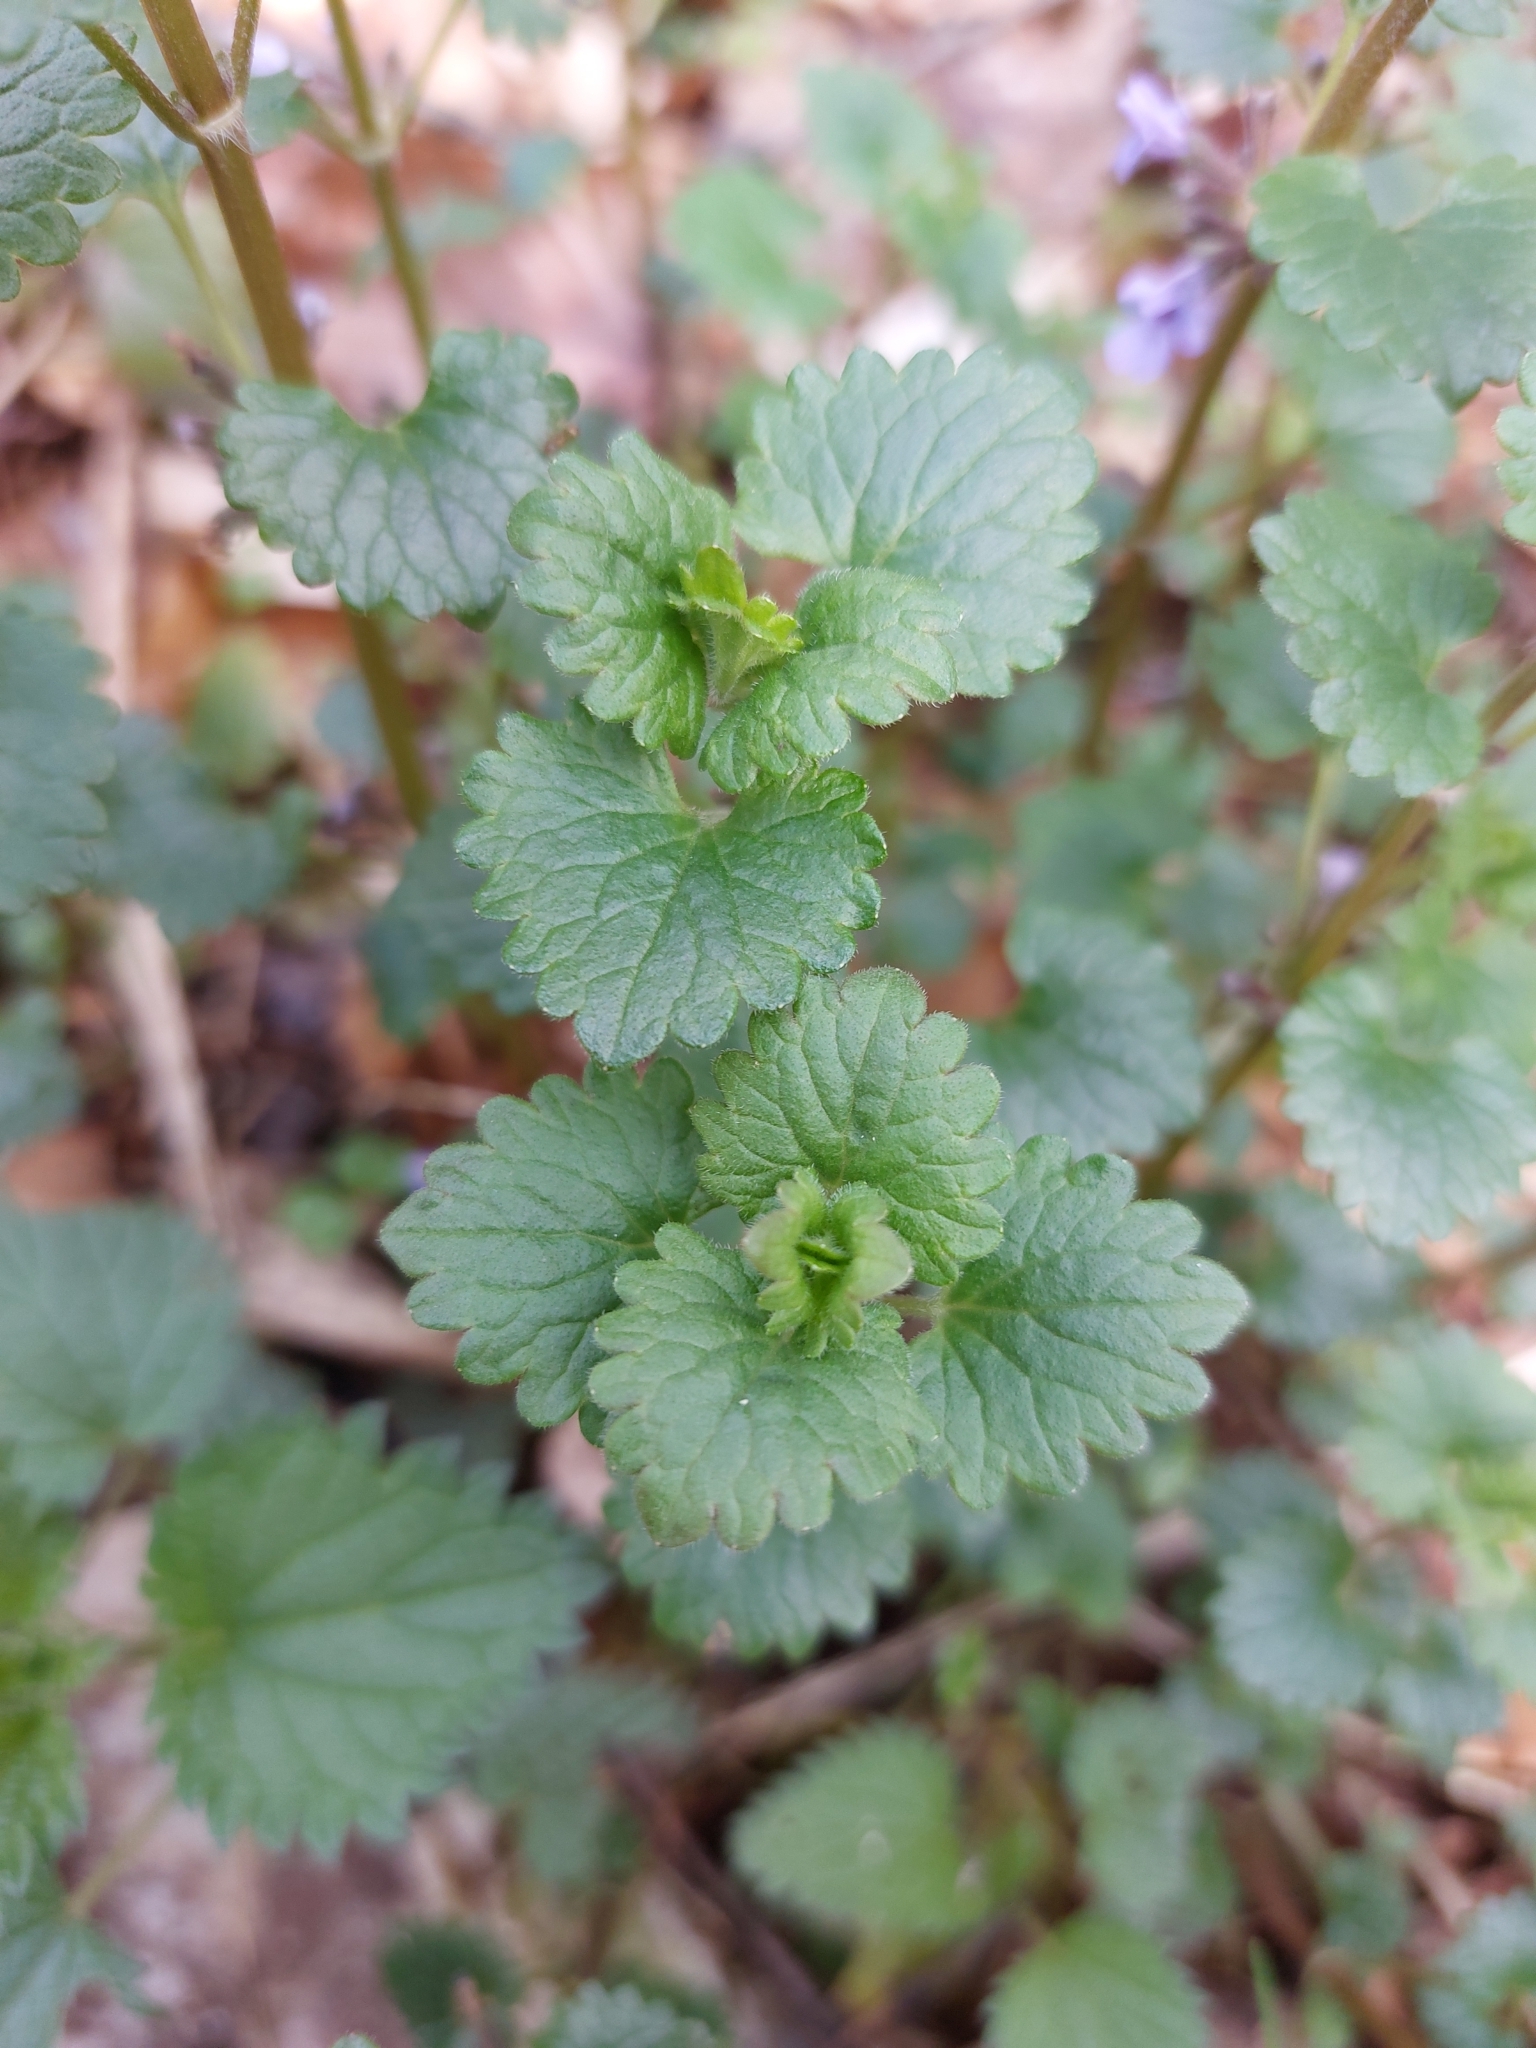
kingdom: Plantae
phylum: Tracheophyta
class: Magnoliopsida
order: Lamiales
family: Lamiaceae
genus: Glechoma
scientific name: Glechoma hederacea
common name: Ground ivy
